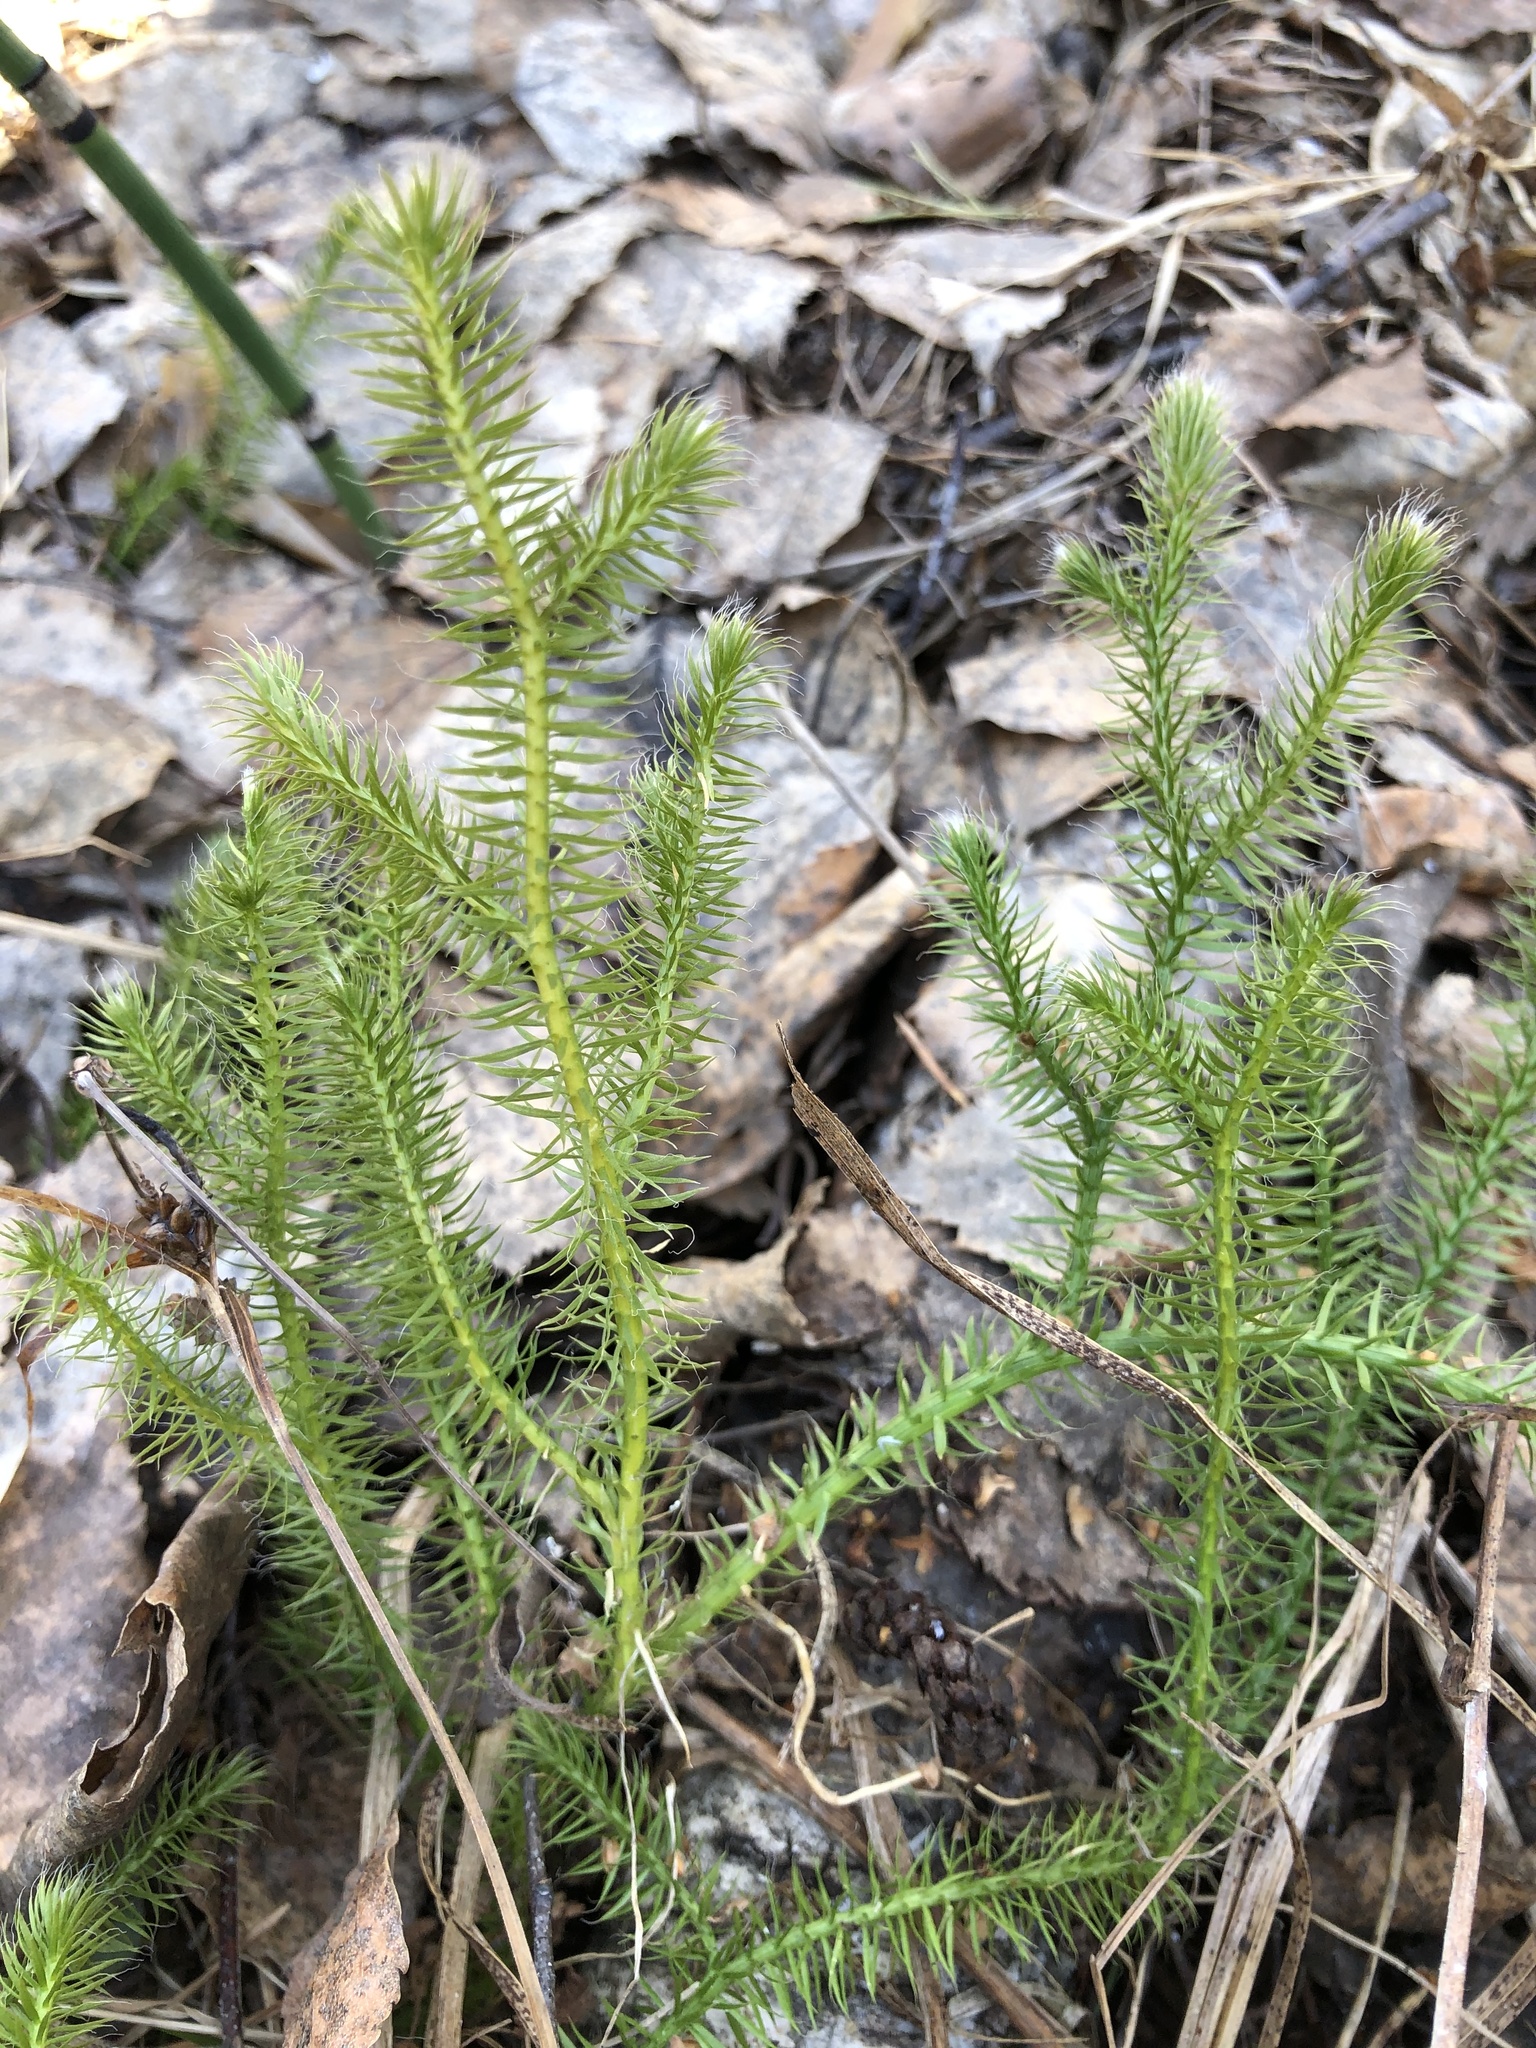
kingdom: Plantae
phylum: Tracheophyta
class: Lycopodiopsida
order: Lycopodiales
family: Lycopodiaceae
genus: Lycopodium
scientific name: Lycopodium clavatum
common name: Stag's-horn clubmoss
